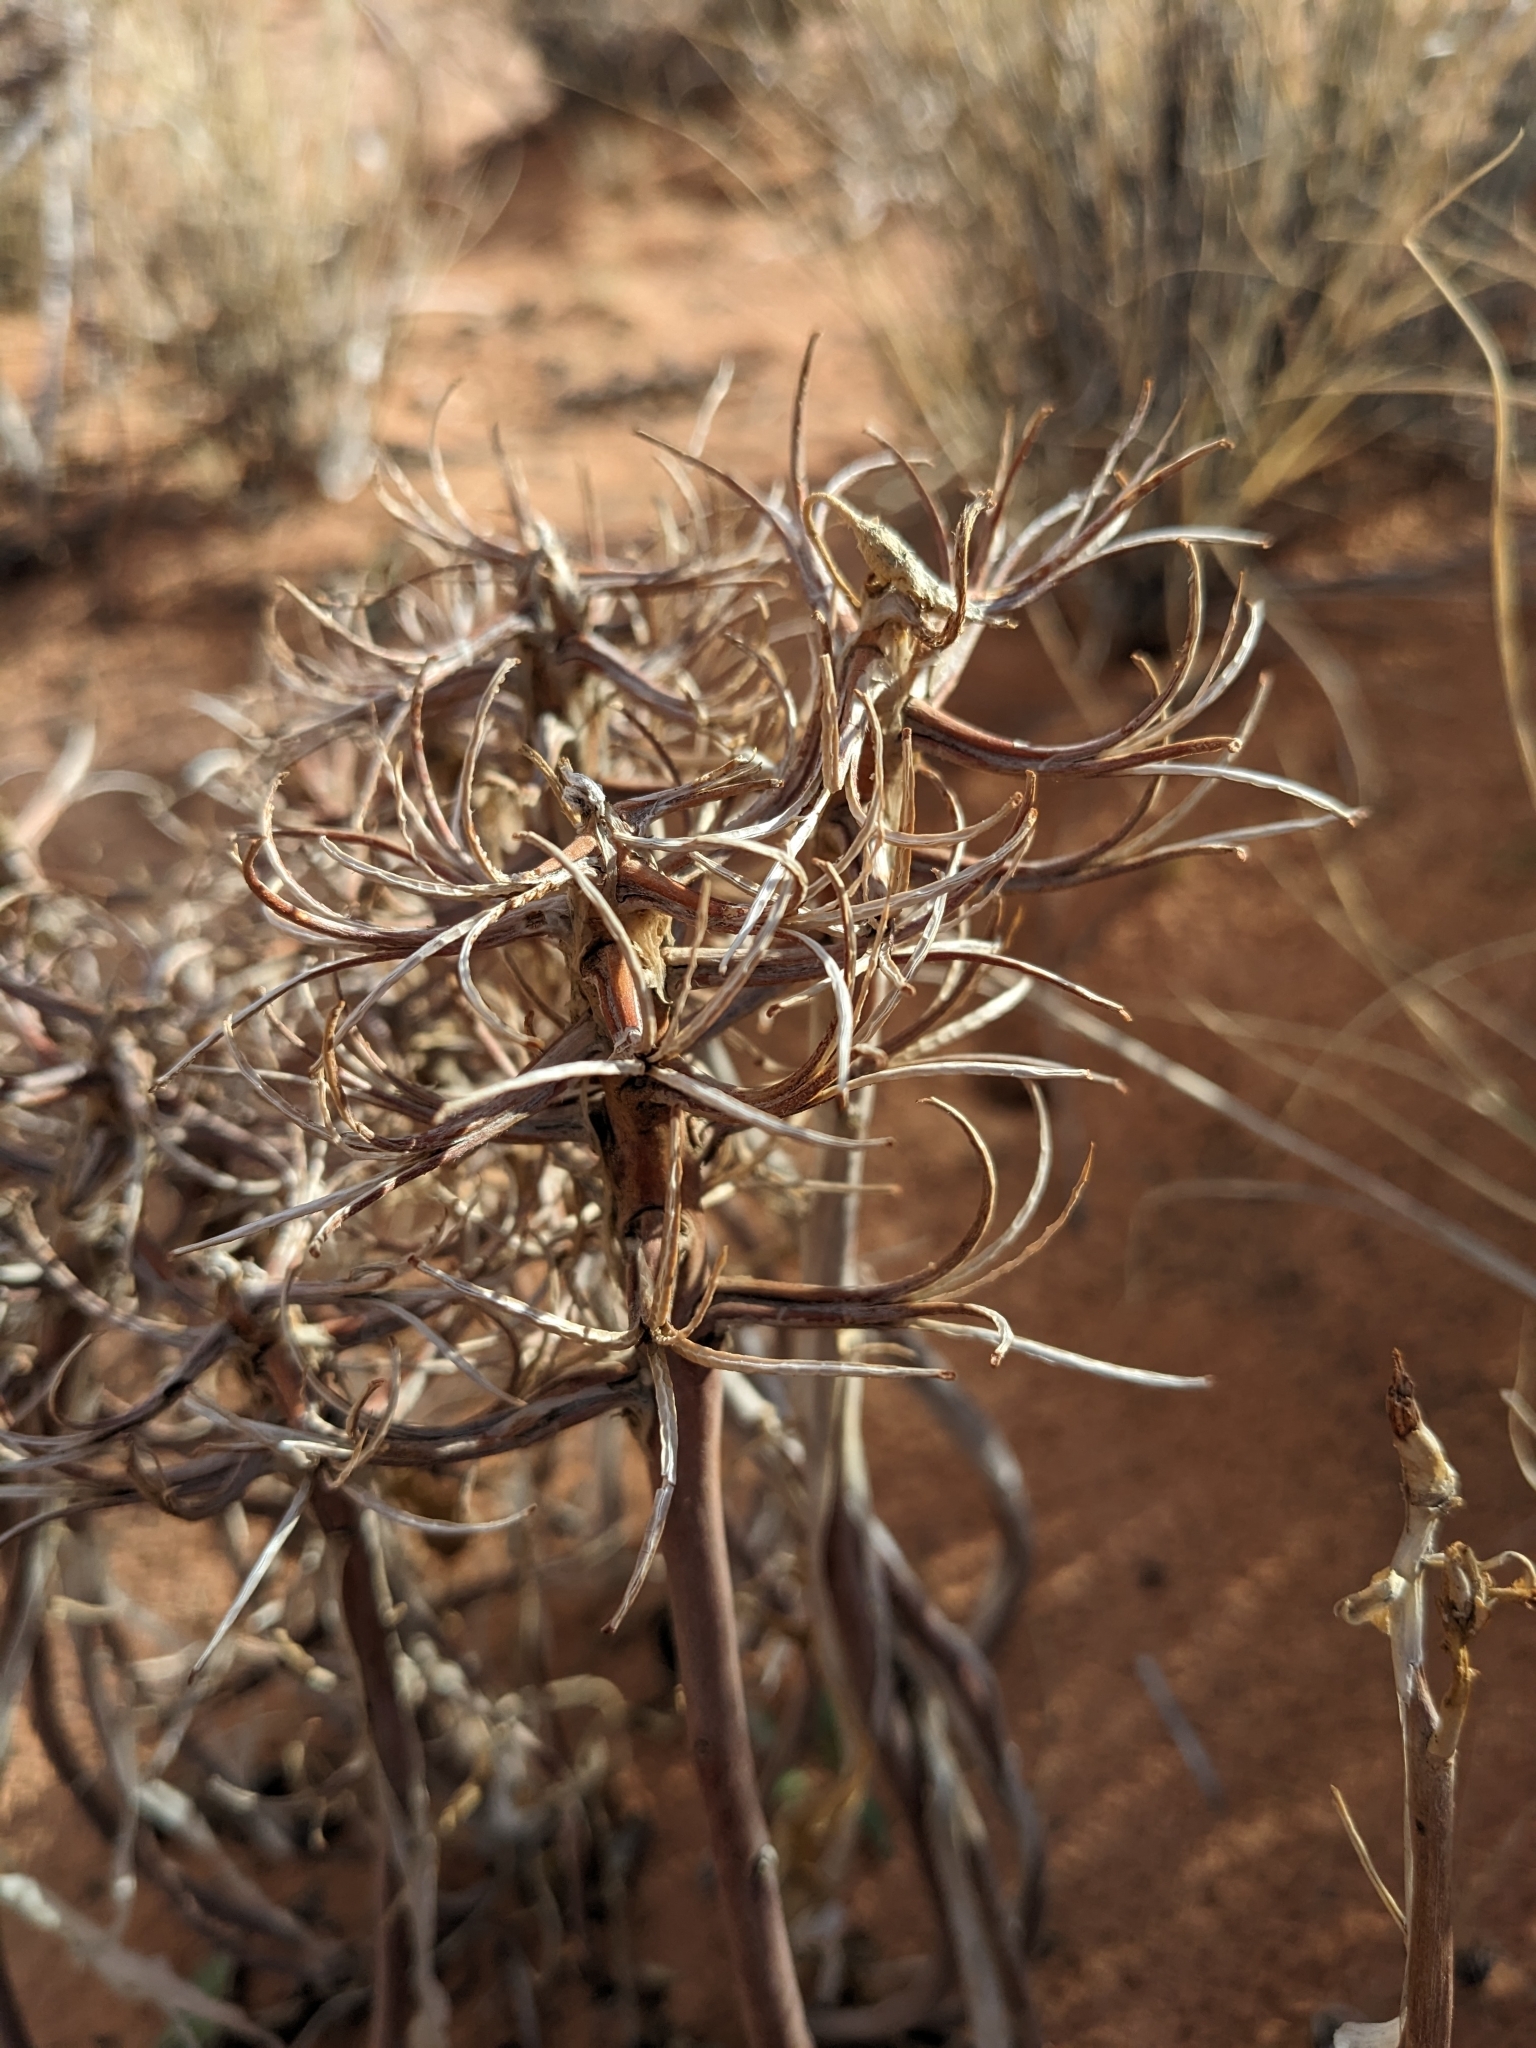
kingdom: Plantae
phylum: Tracheophyta
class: Magnoliopsida
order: Myrtales
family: Onagraceae
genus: Oenothera
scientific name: Oenothera deltoides
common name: Basket evening-primrose
